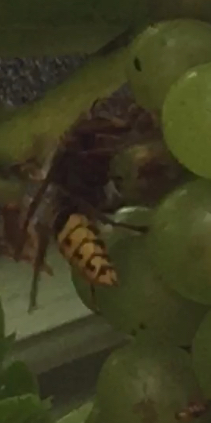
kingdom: Animalia
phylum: Arthropoda
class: Insecta
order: Hymenoptera
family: Vespidae
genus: Vespa
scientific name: Vespa crabro
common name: Hornet
